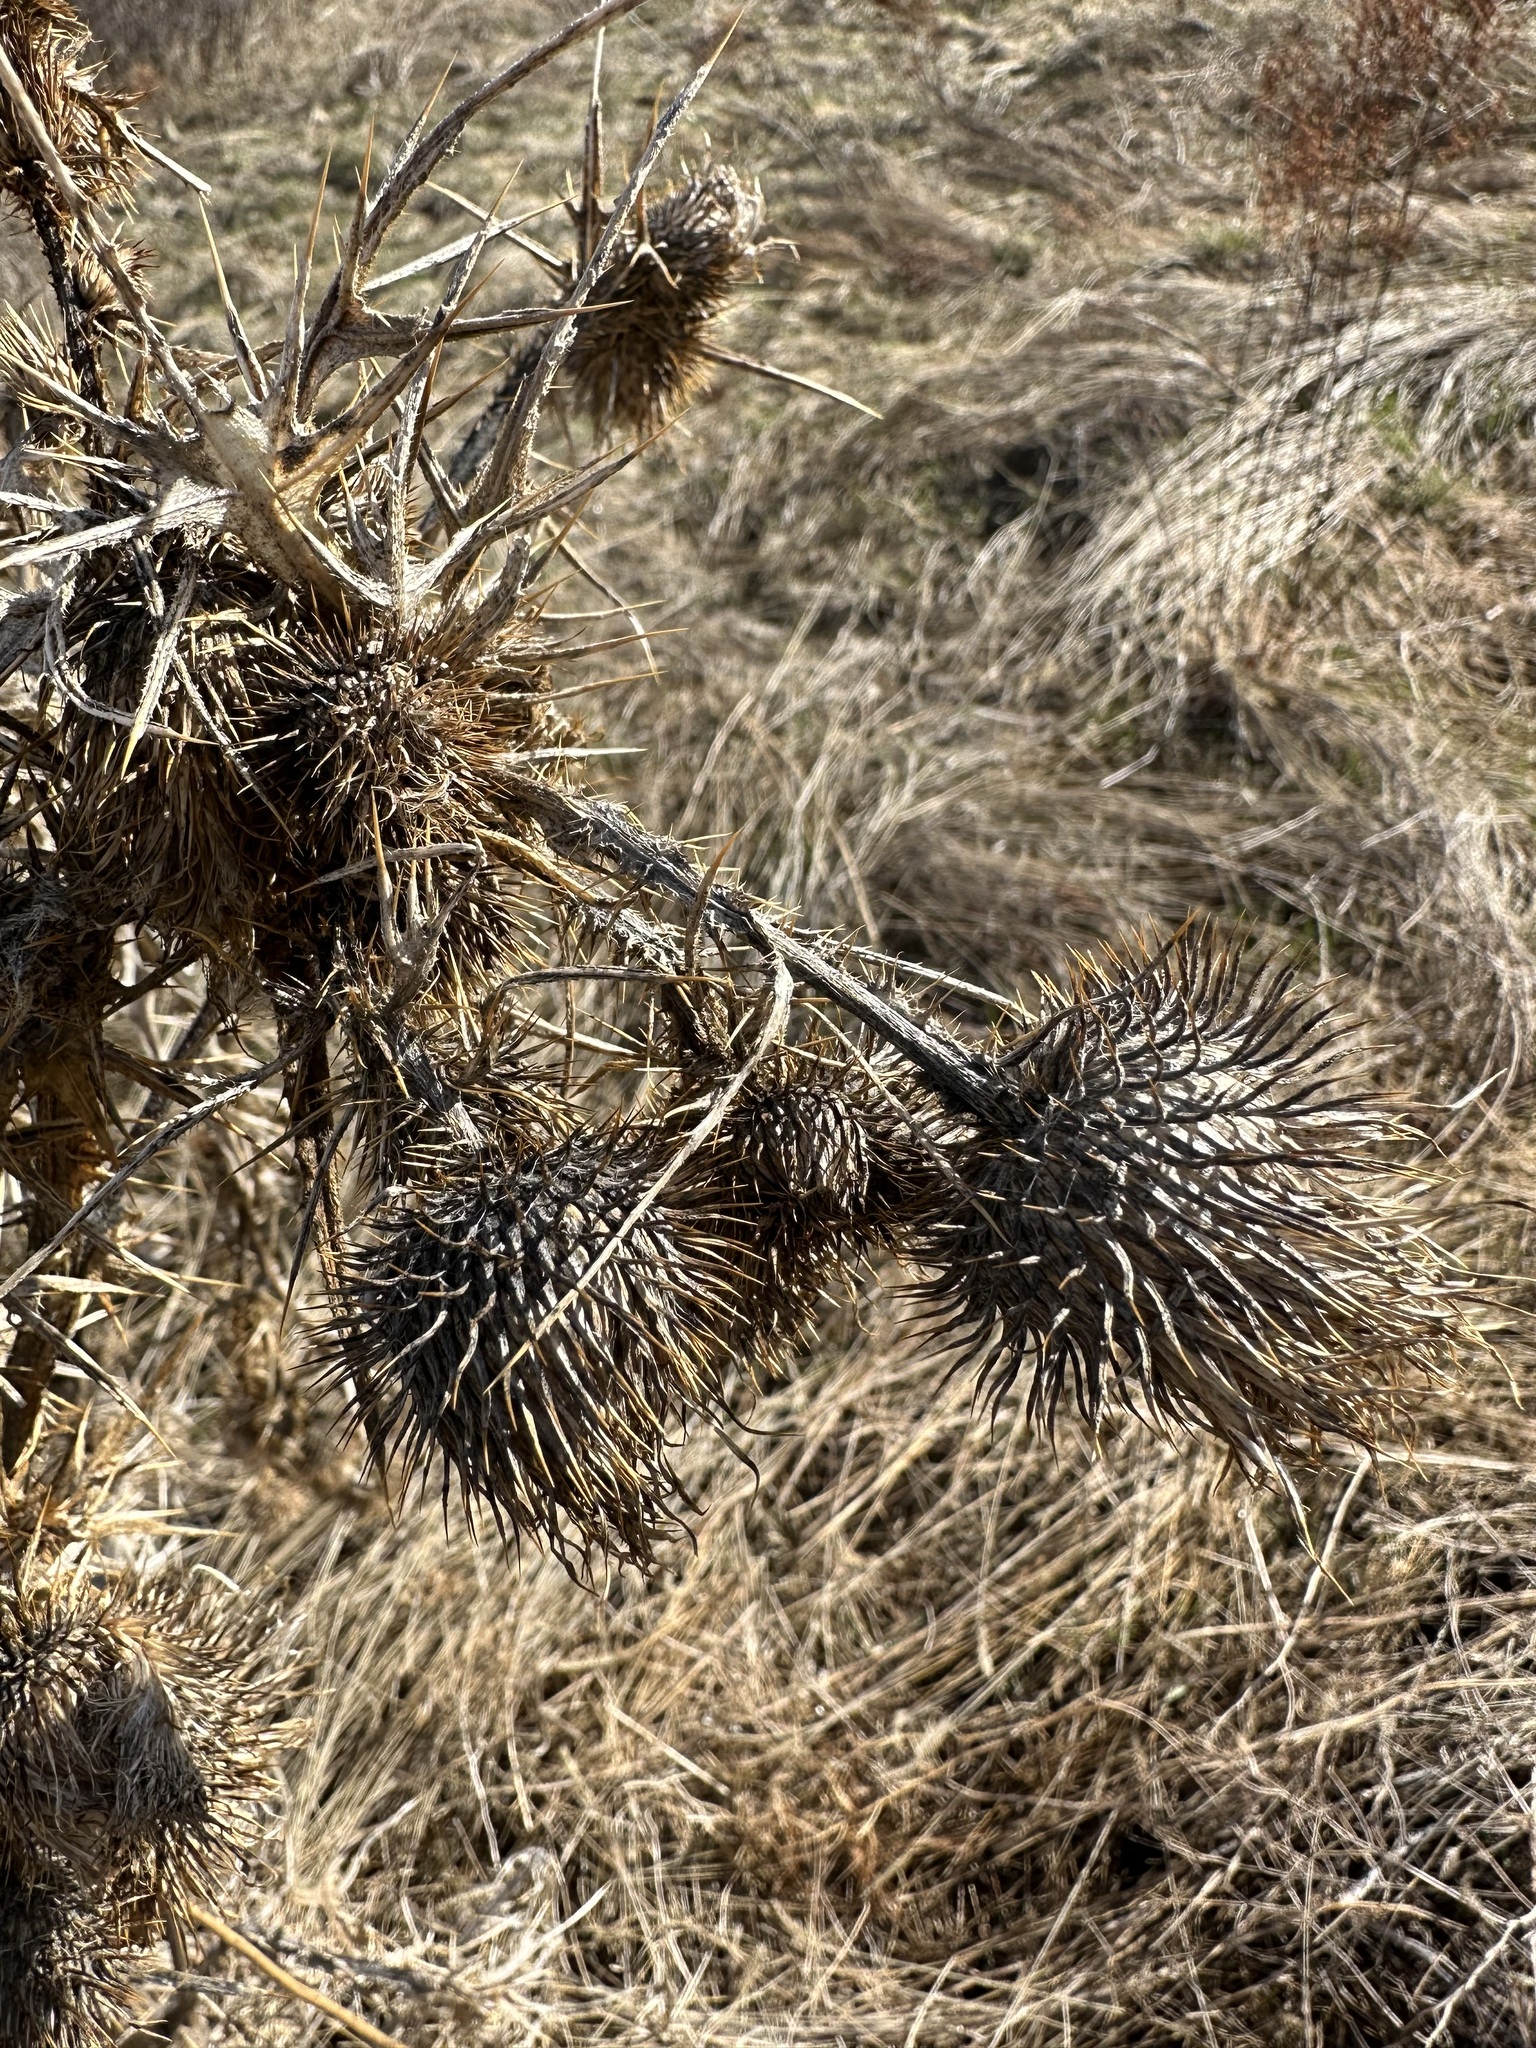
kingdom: Plantae
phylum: Tracheophyta
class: Magnoliopsida
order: Asterales
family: Asteraceae
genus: Cirsium
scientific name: Cirsium vulgare
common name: Bull thistle
